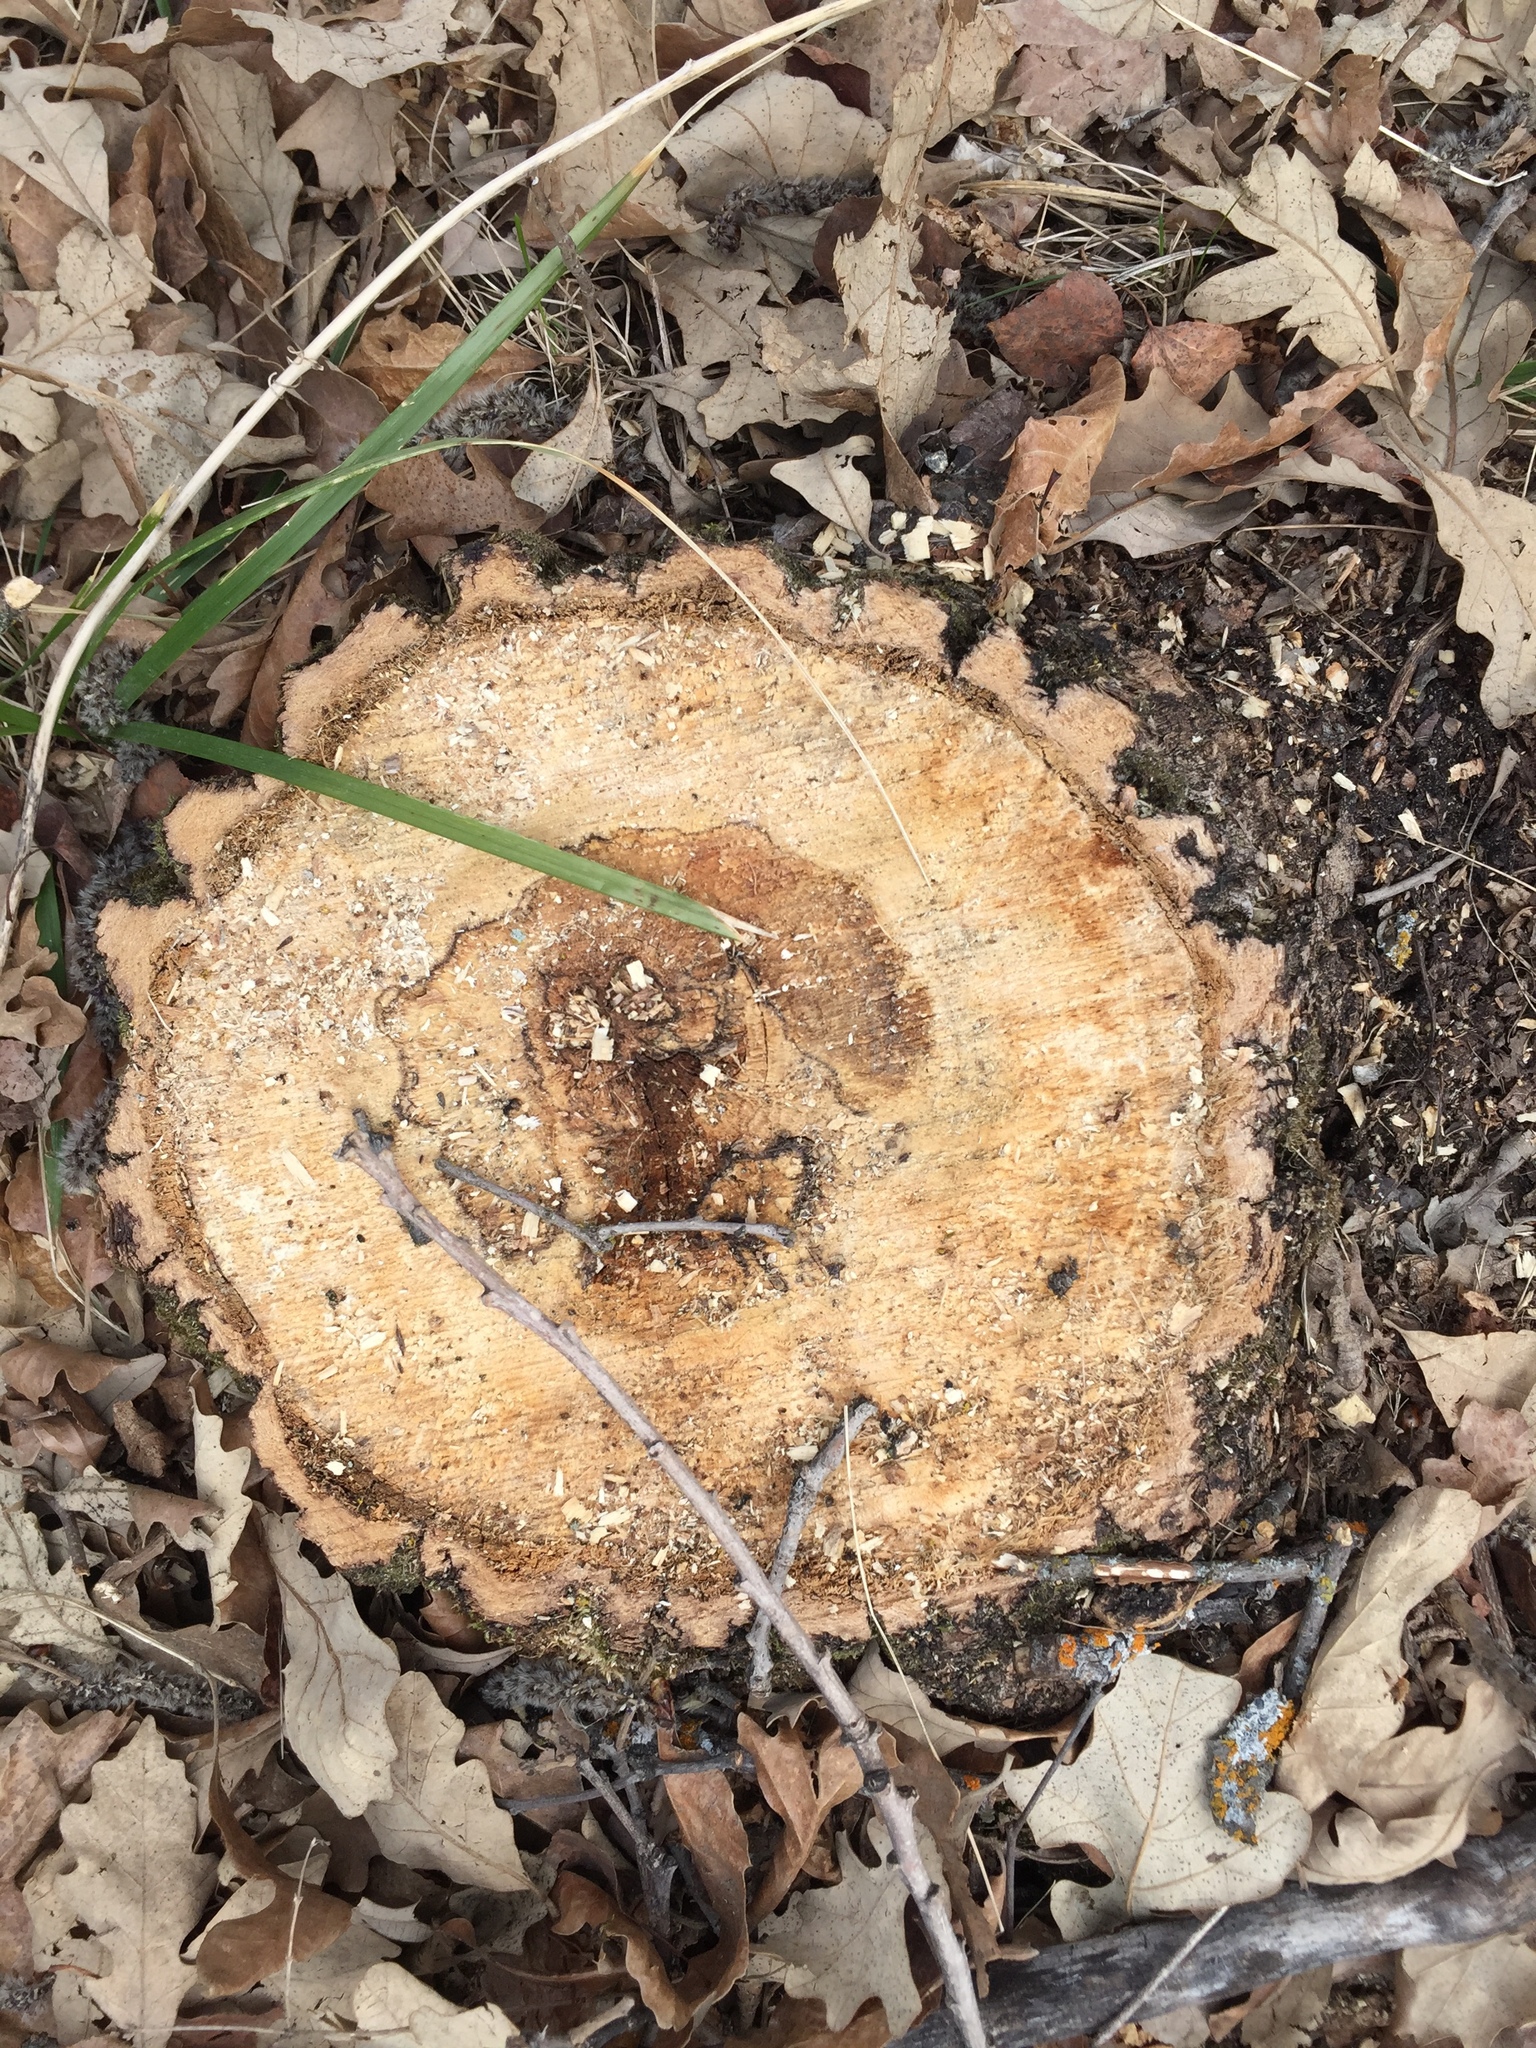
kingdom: Plantae
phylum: Tracheophyta
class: Magnoliopsida
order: Fagales
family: Fagaceae
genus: Quercus
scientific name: Quercus macrocarpa
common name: Bur oak
